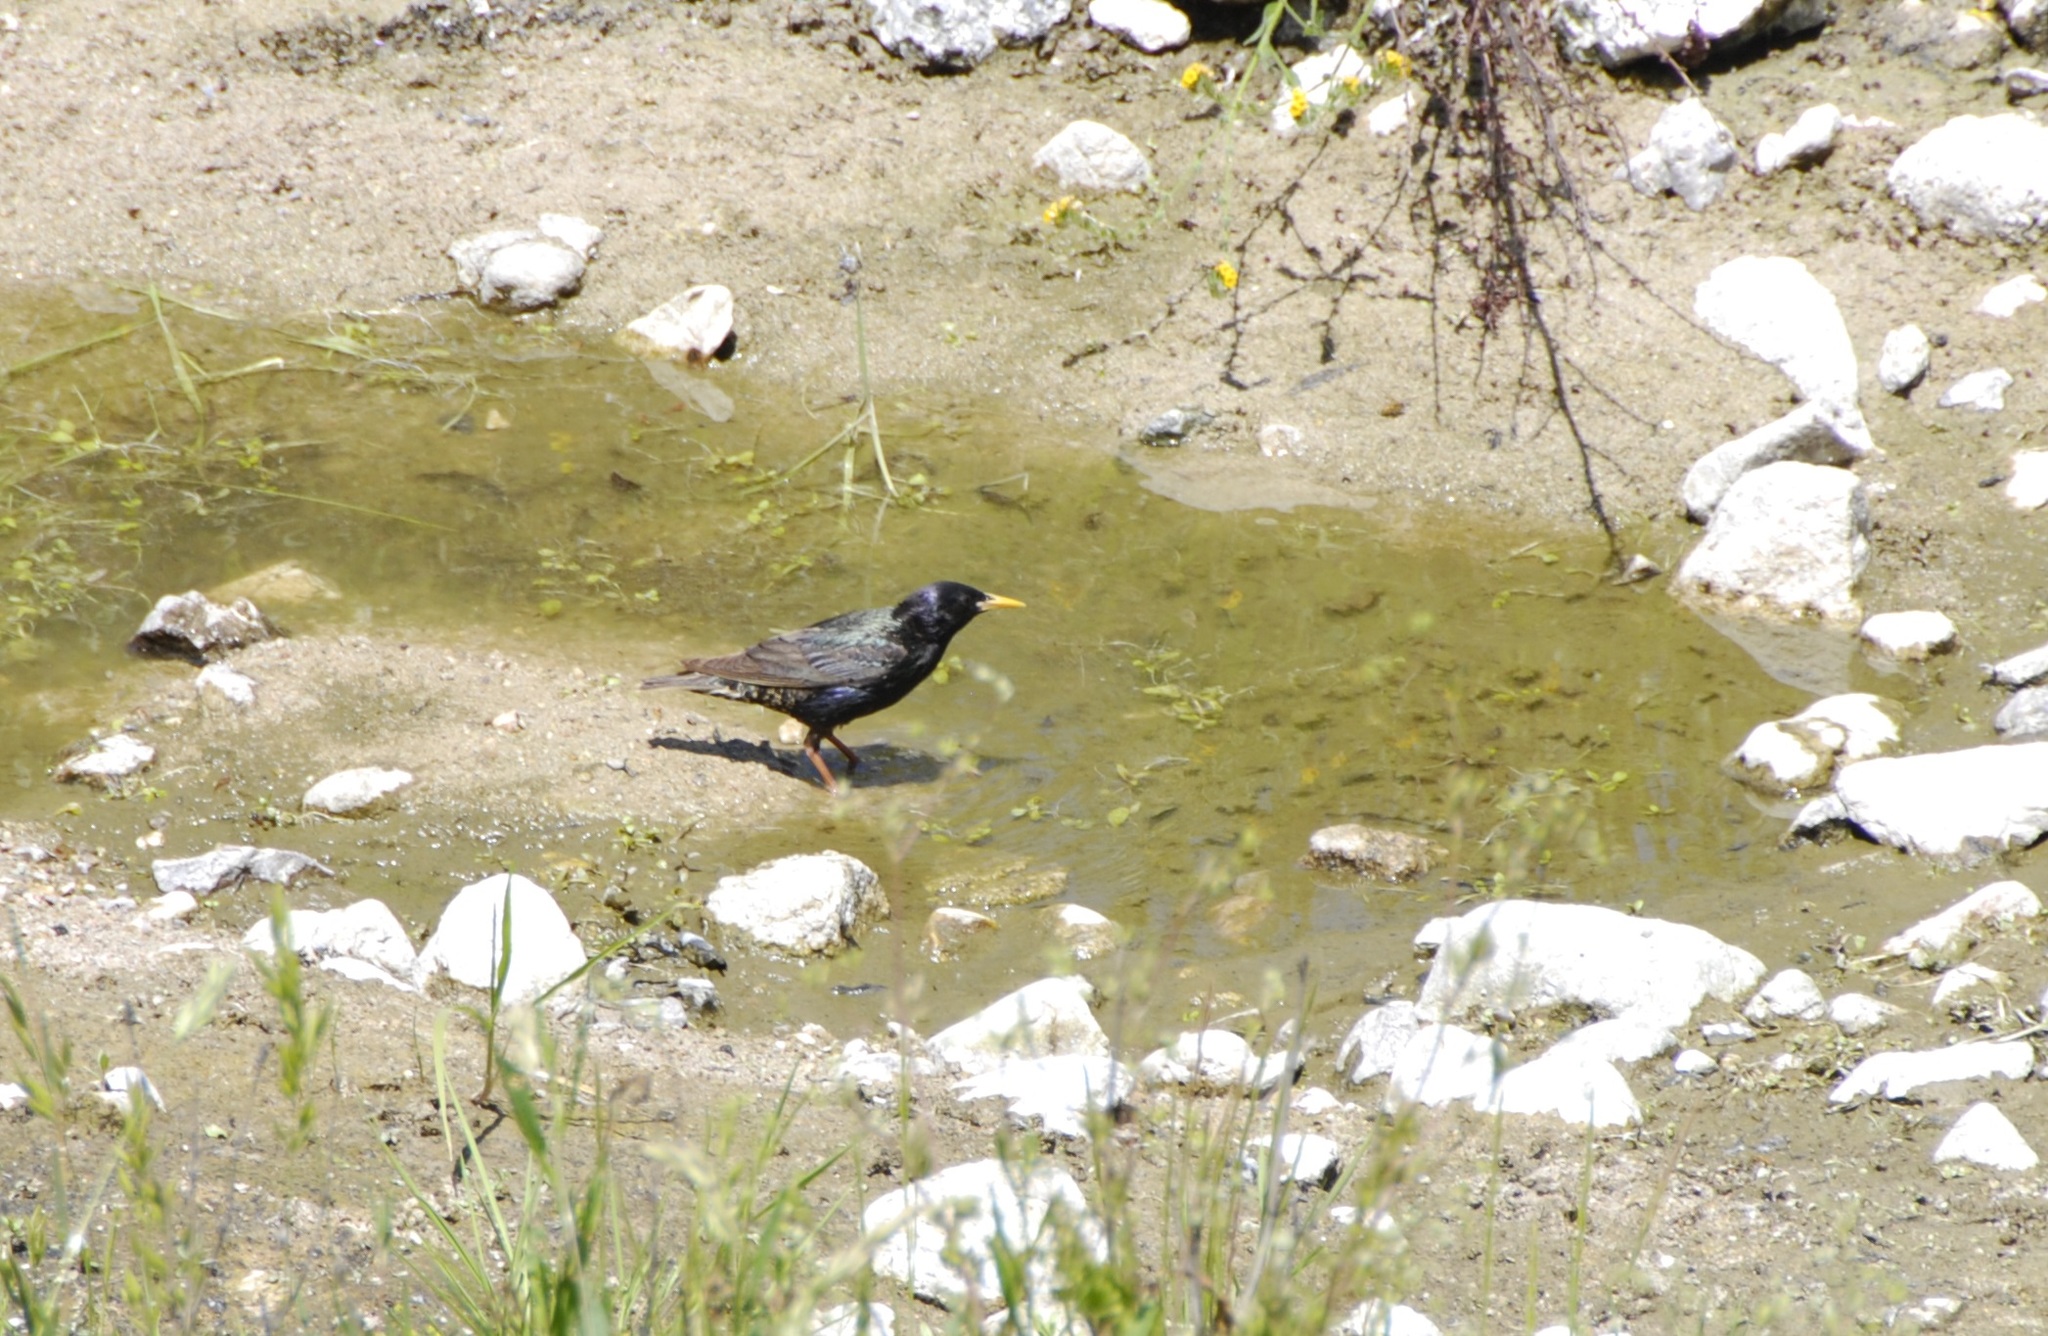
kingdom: Animalia
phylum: Chordata
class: Aves
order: Passeriformes
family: Sturnidae
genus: Sturnus
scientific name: Sturnus vulgaris
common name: Common starling
